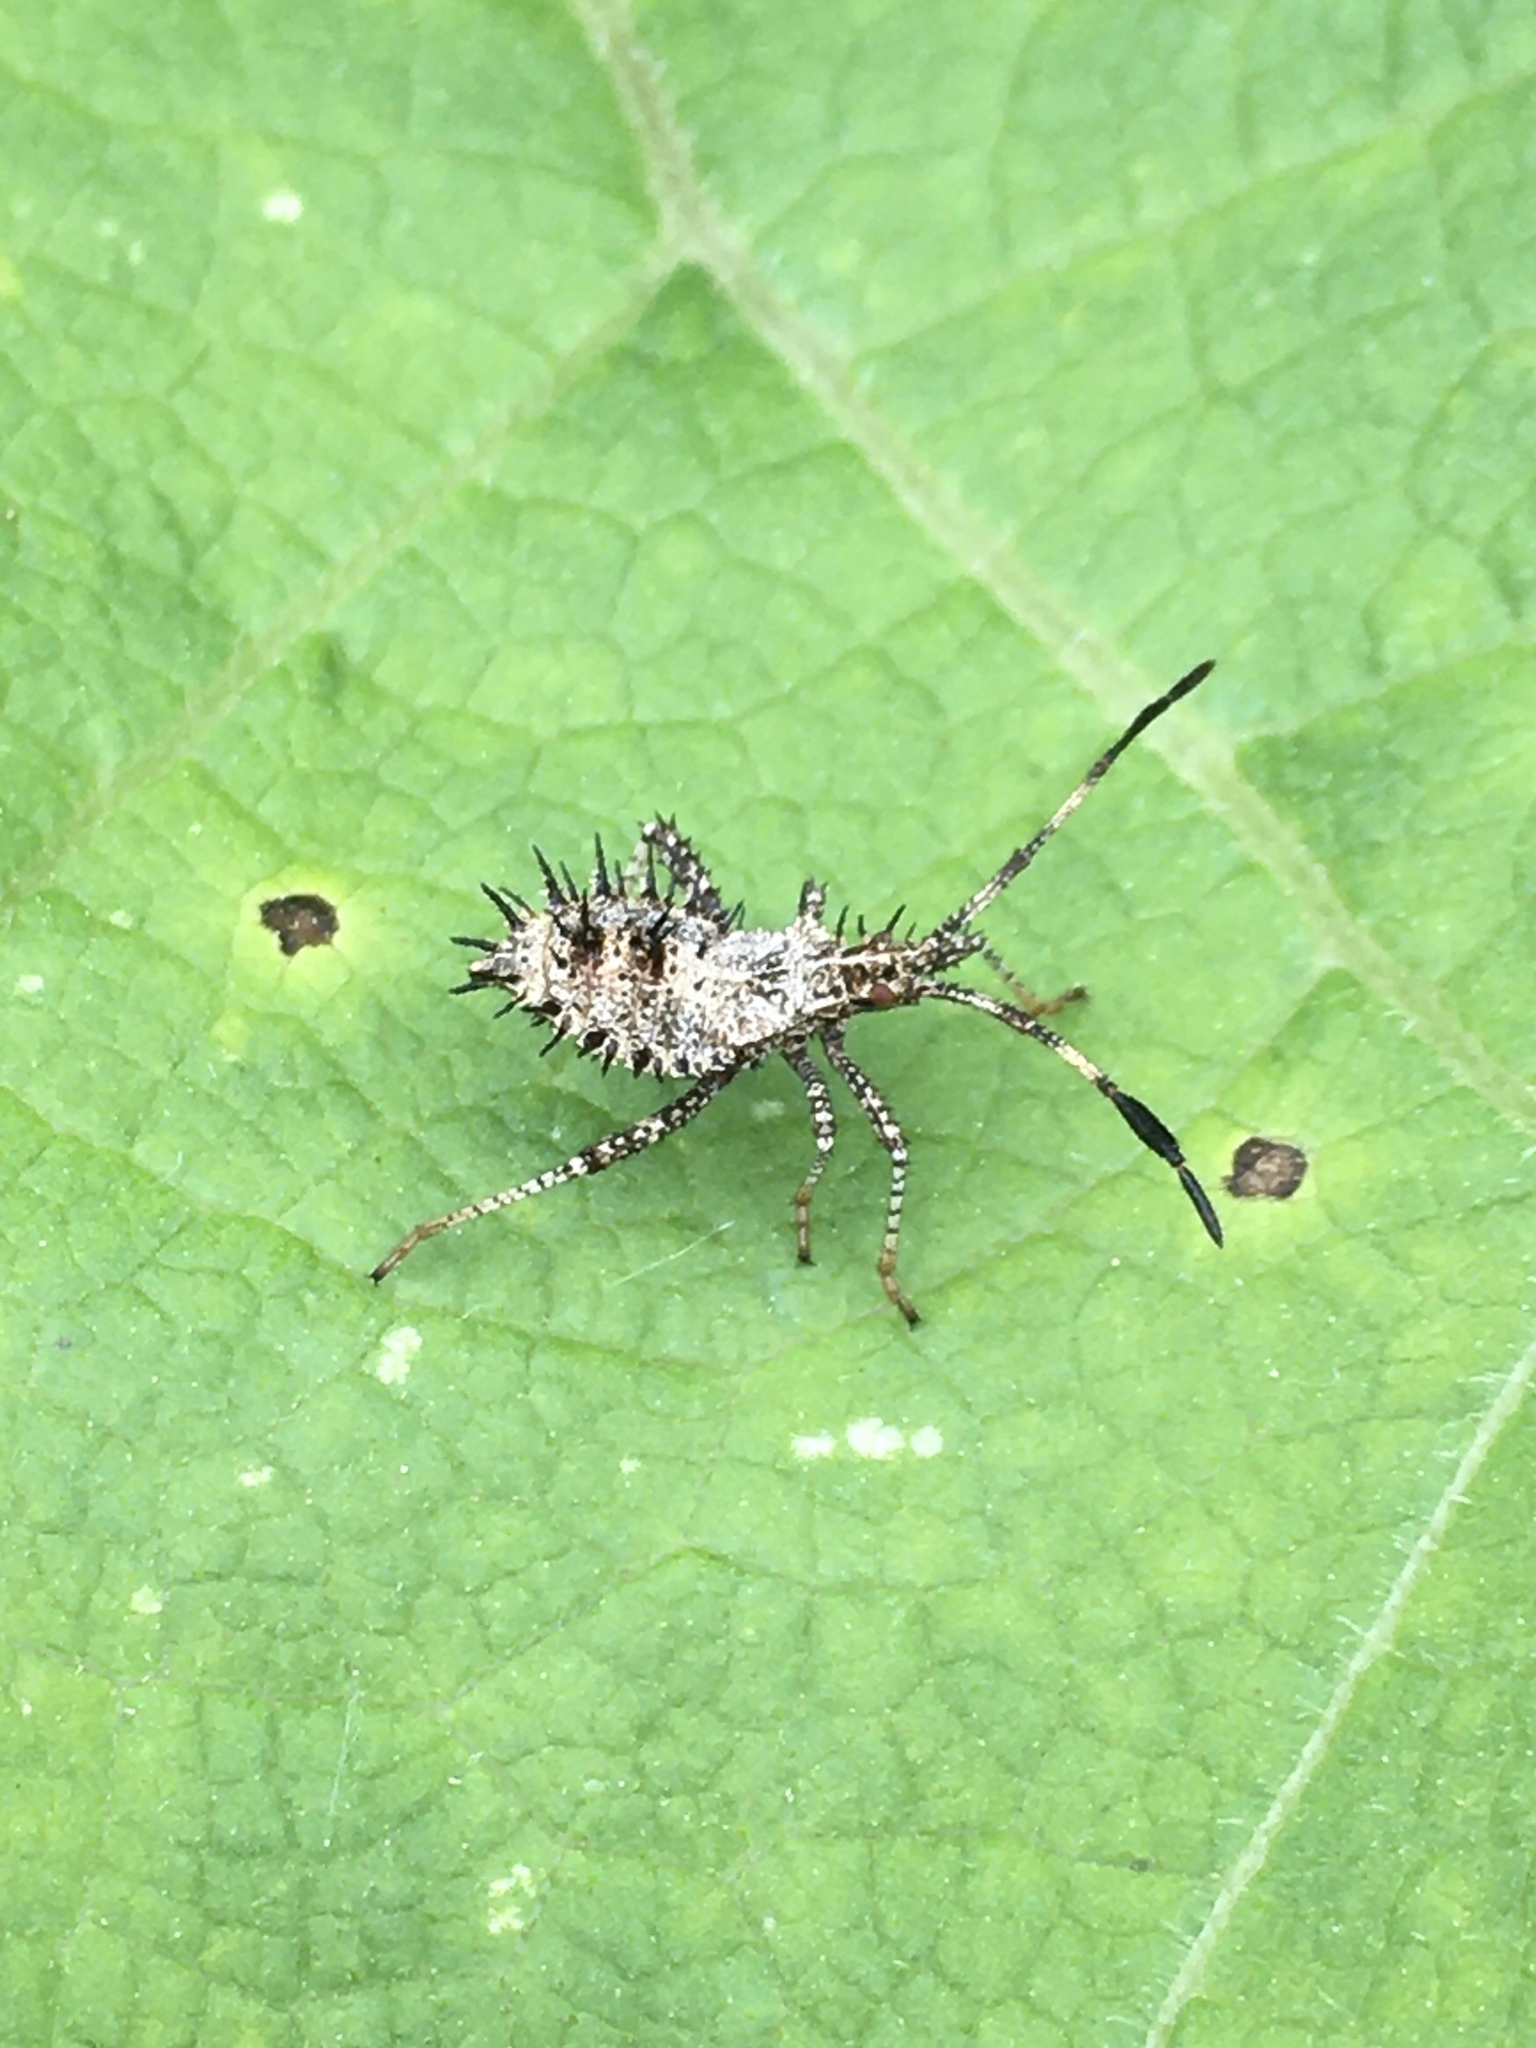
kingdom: Animalia
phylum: Arthropoda
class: Insecta
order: Hemiptera
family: Coreidae
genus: Euthochtha
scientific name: Euthochtha galeator
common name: Helmeted squash bug
